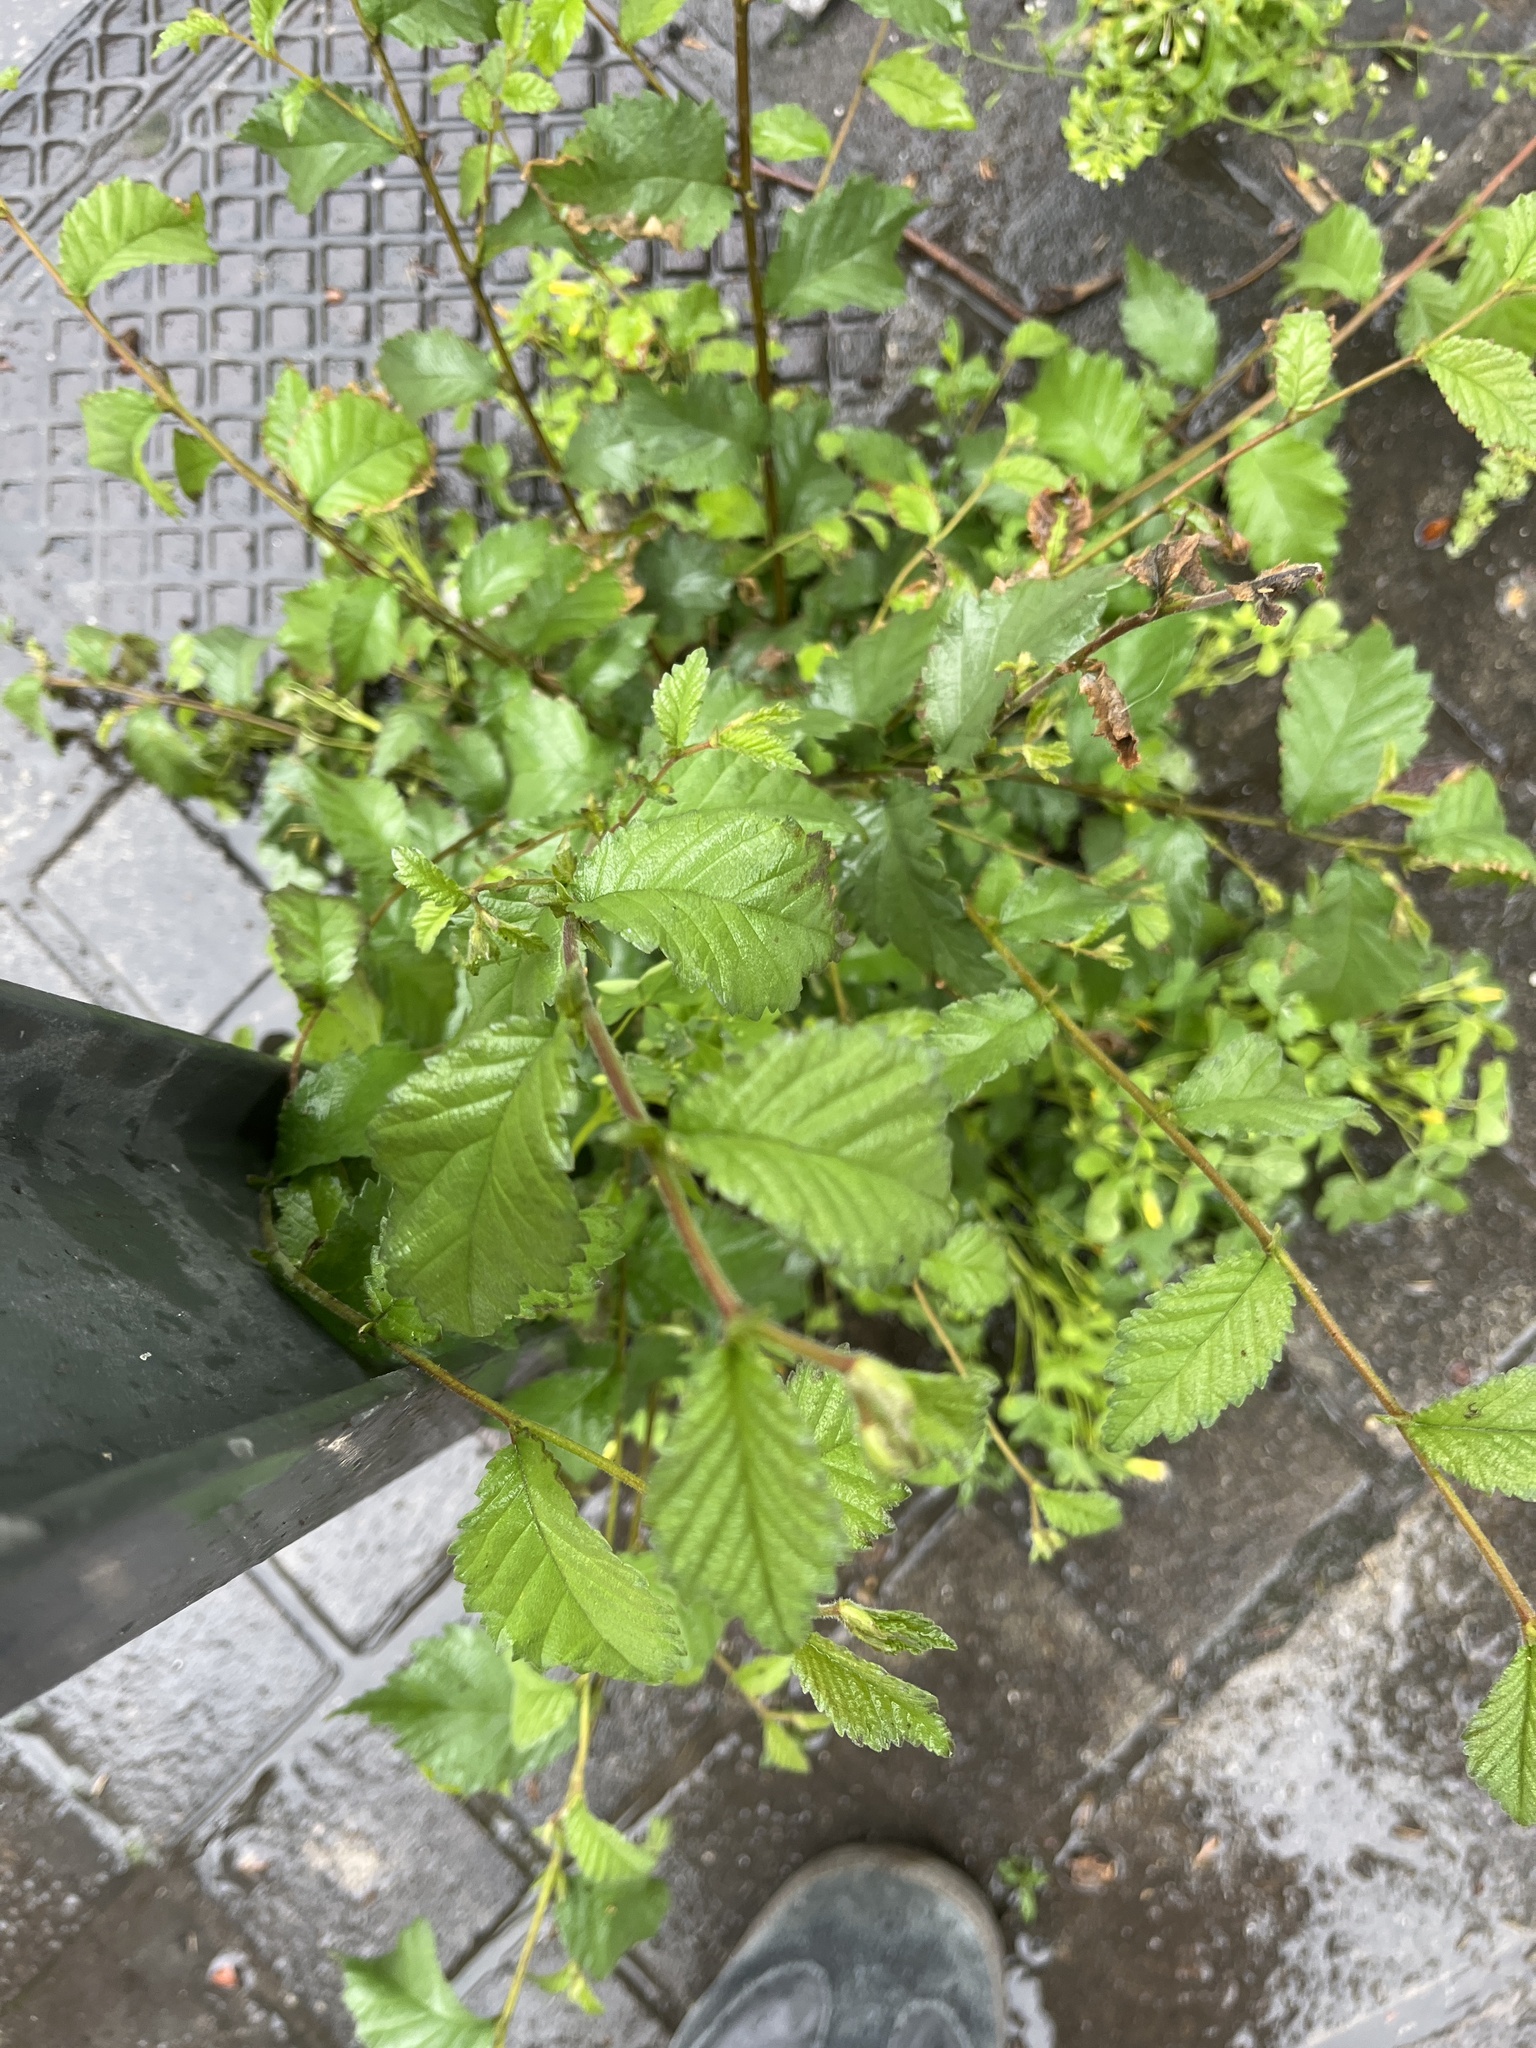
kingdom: Plantae
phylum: Tracheophyta
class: Magnoliopsida
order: Rosales
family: Ulmaceae
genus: Ulmus
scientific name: Ulmus minor
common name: Small-leaved elm
